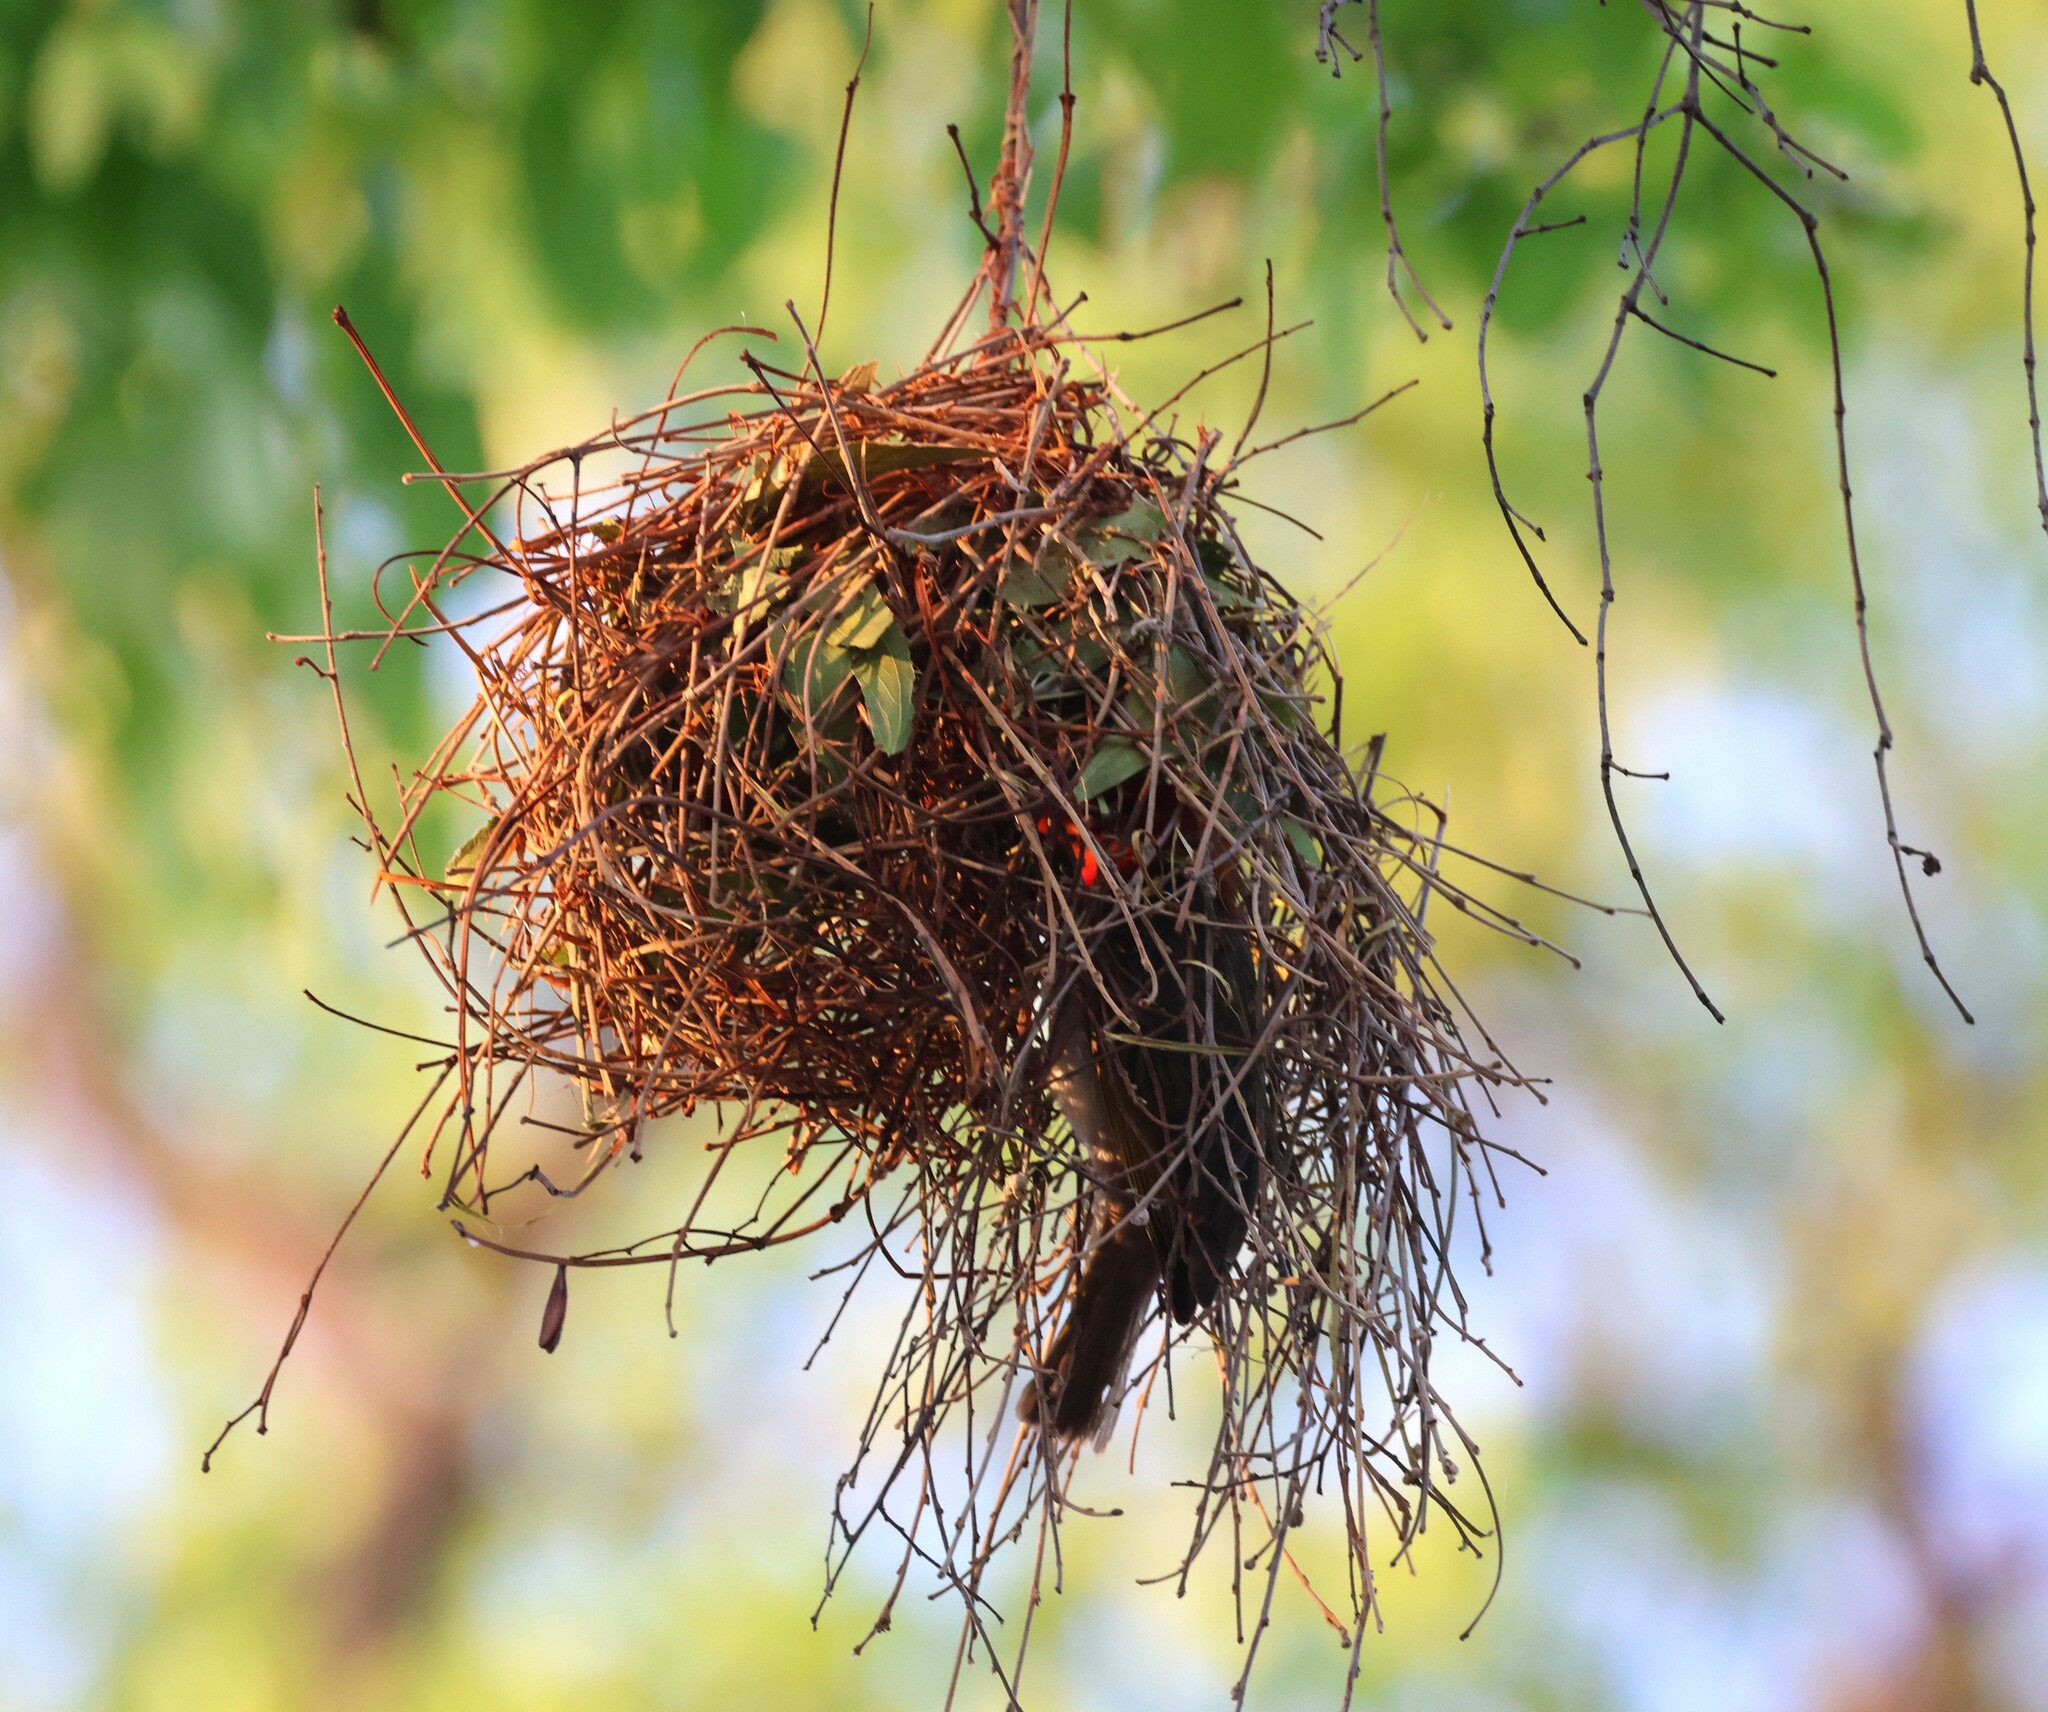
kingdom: Animalia
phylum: Chordata
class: Aves
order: Passeriformes
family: Ploceidae
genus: Anaplectes
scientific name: Anaplectes rubriceps
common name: Red-headed weaver
